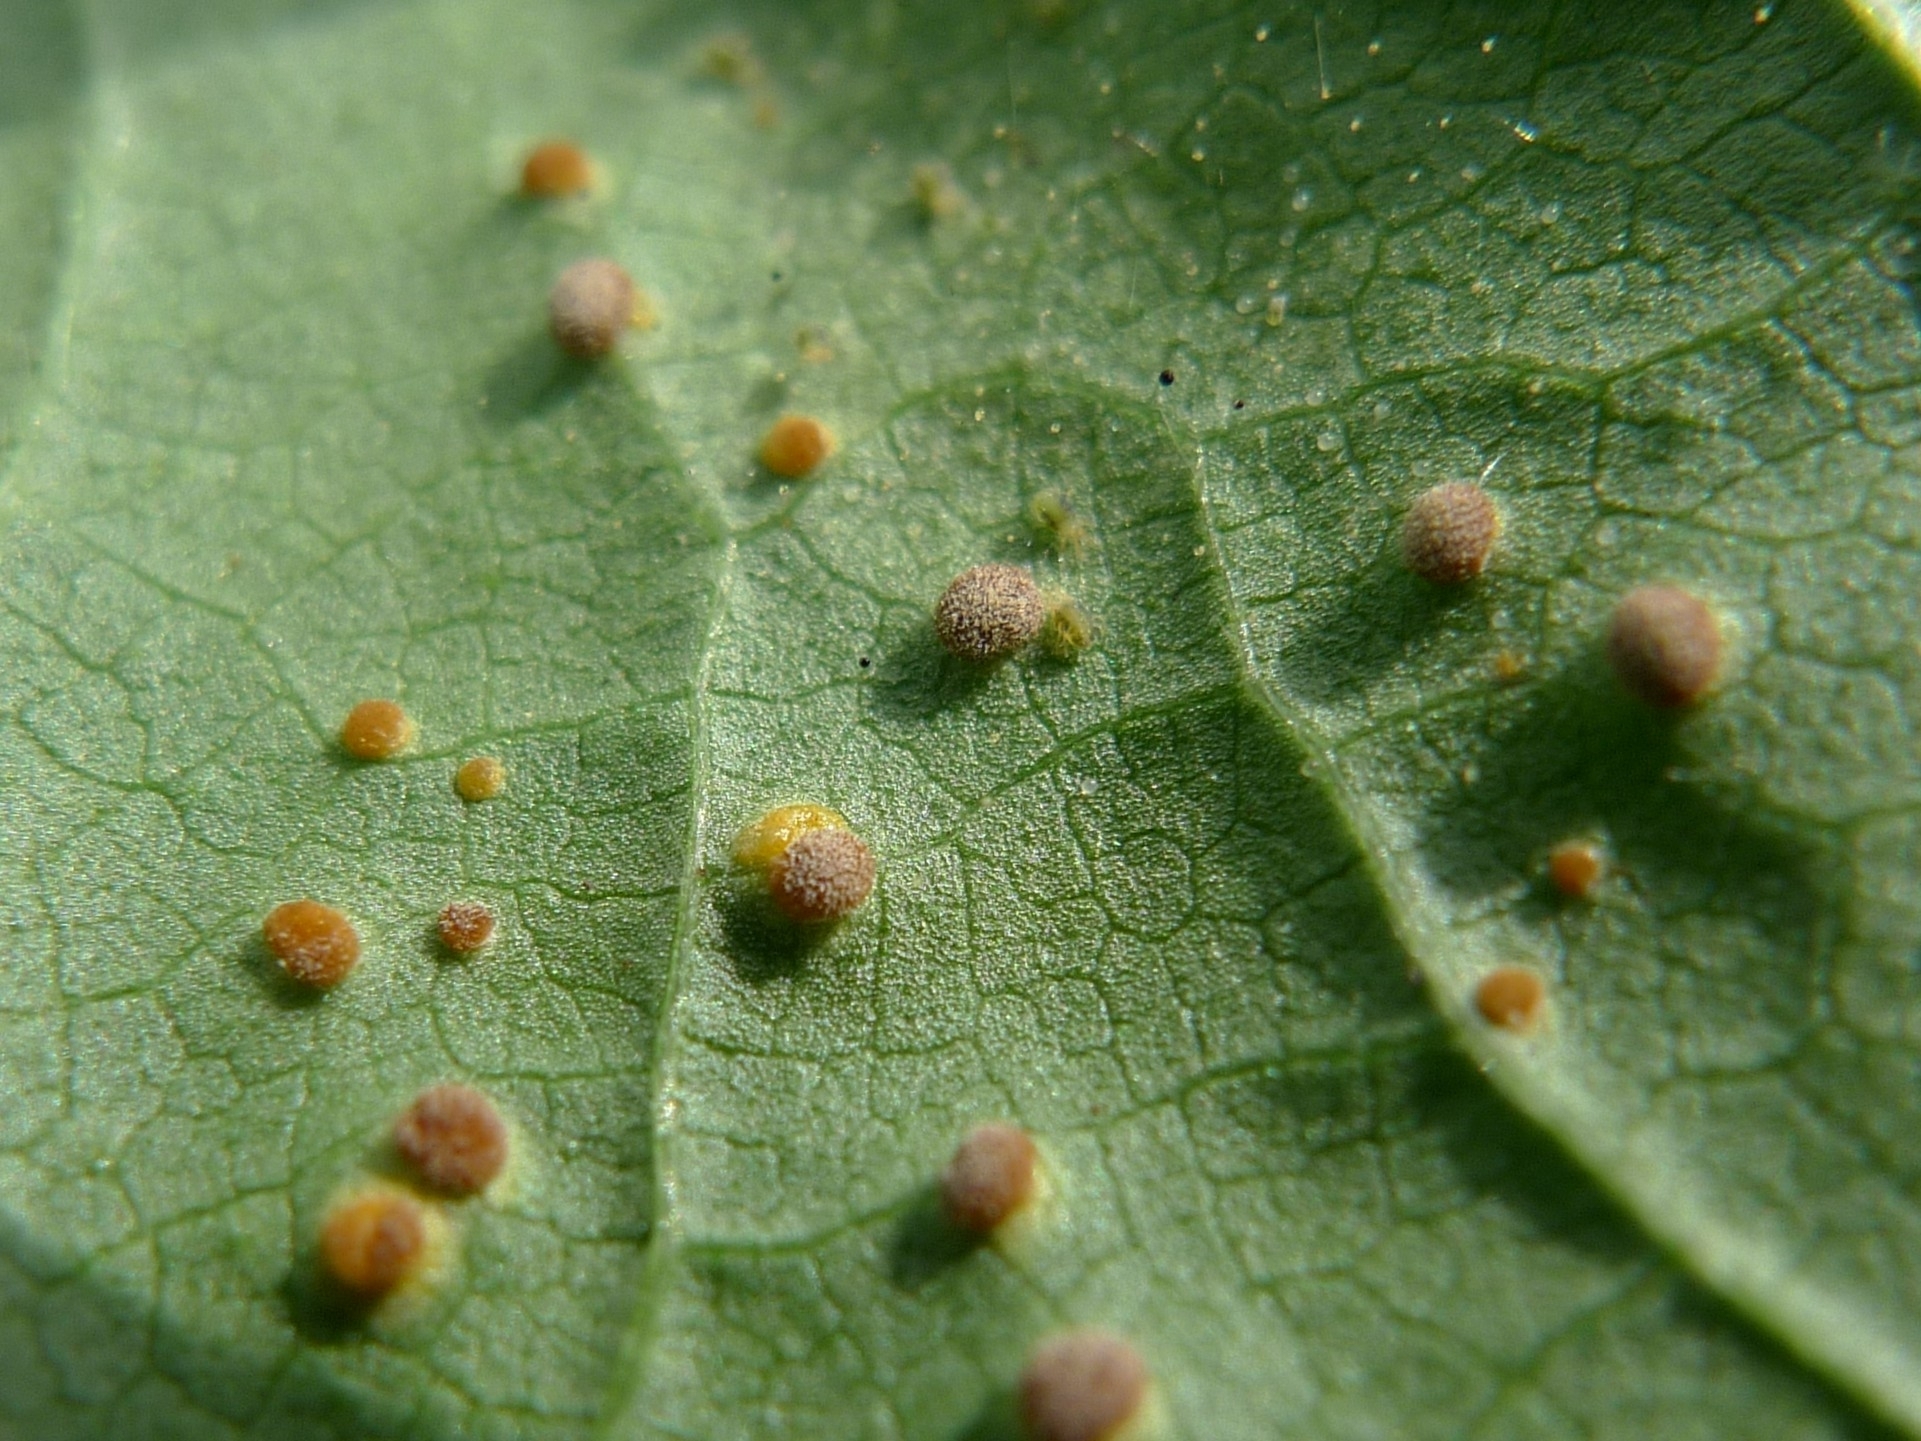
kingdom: Fungi
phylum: Basidiomycota
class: Pucciniomycetes
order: Pucciniales
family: Pucciniaceae
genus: Puccinia
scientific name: Puccinia malvacearum
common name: Hollyhock rust
